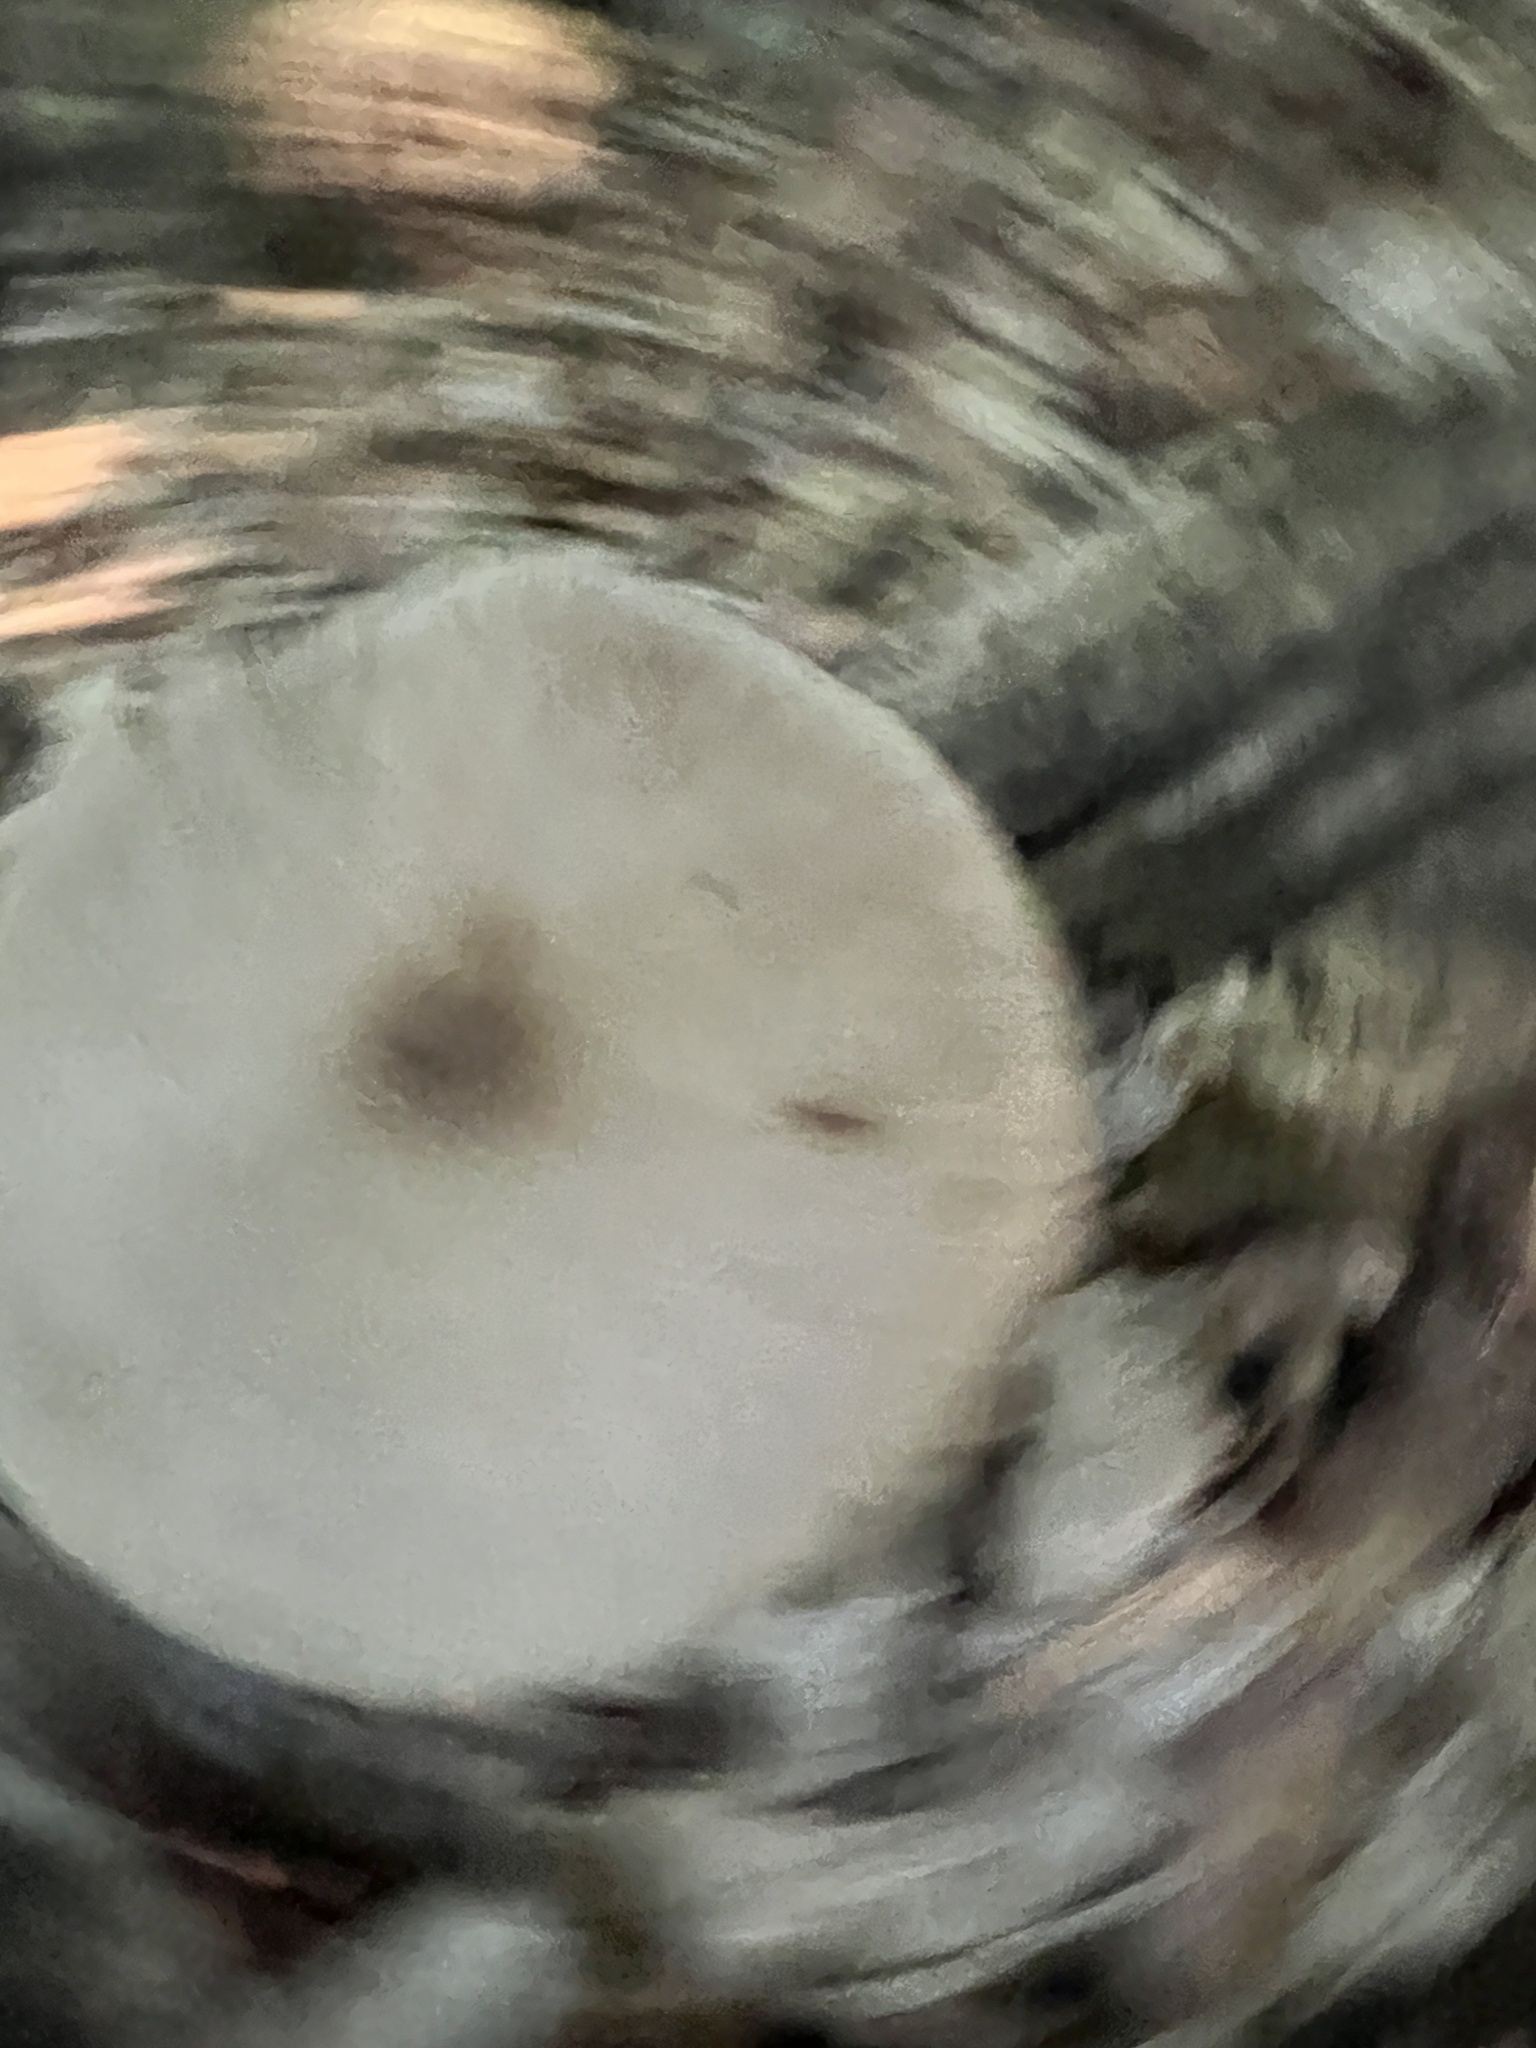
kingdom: Fungi
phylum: Basidiomycota
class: Agaricomycetes
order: Agaricales
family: Pluteaceae
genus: Pluteus
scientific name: Pluteus hongoi
